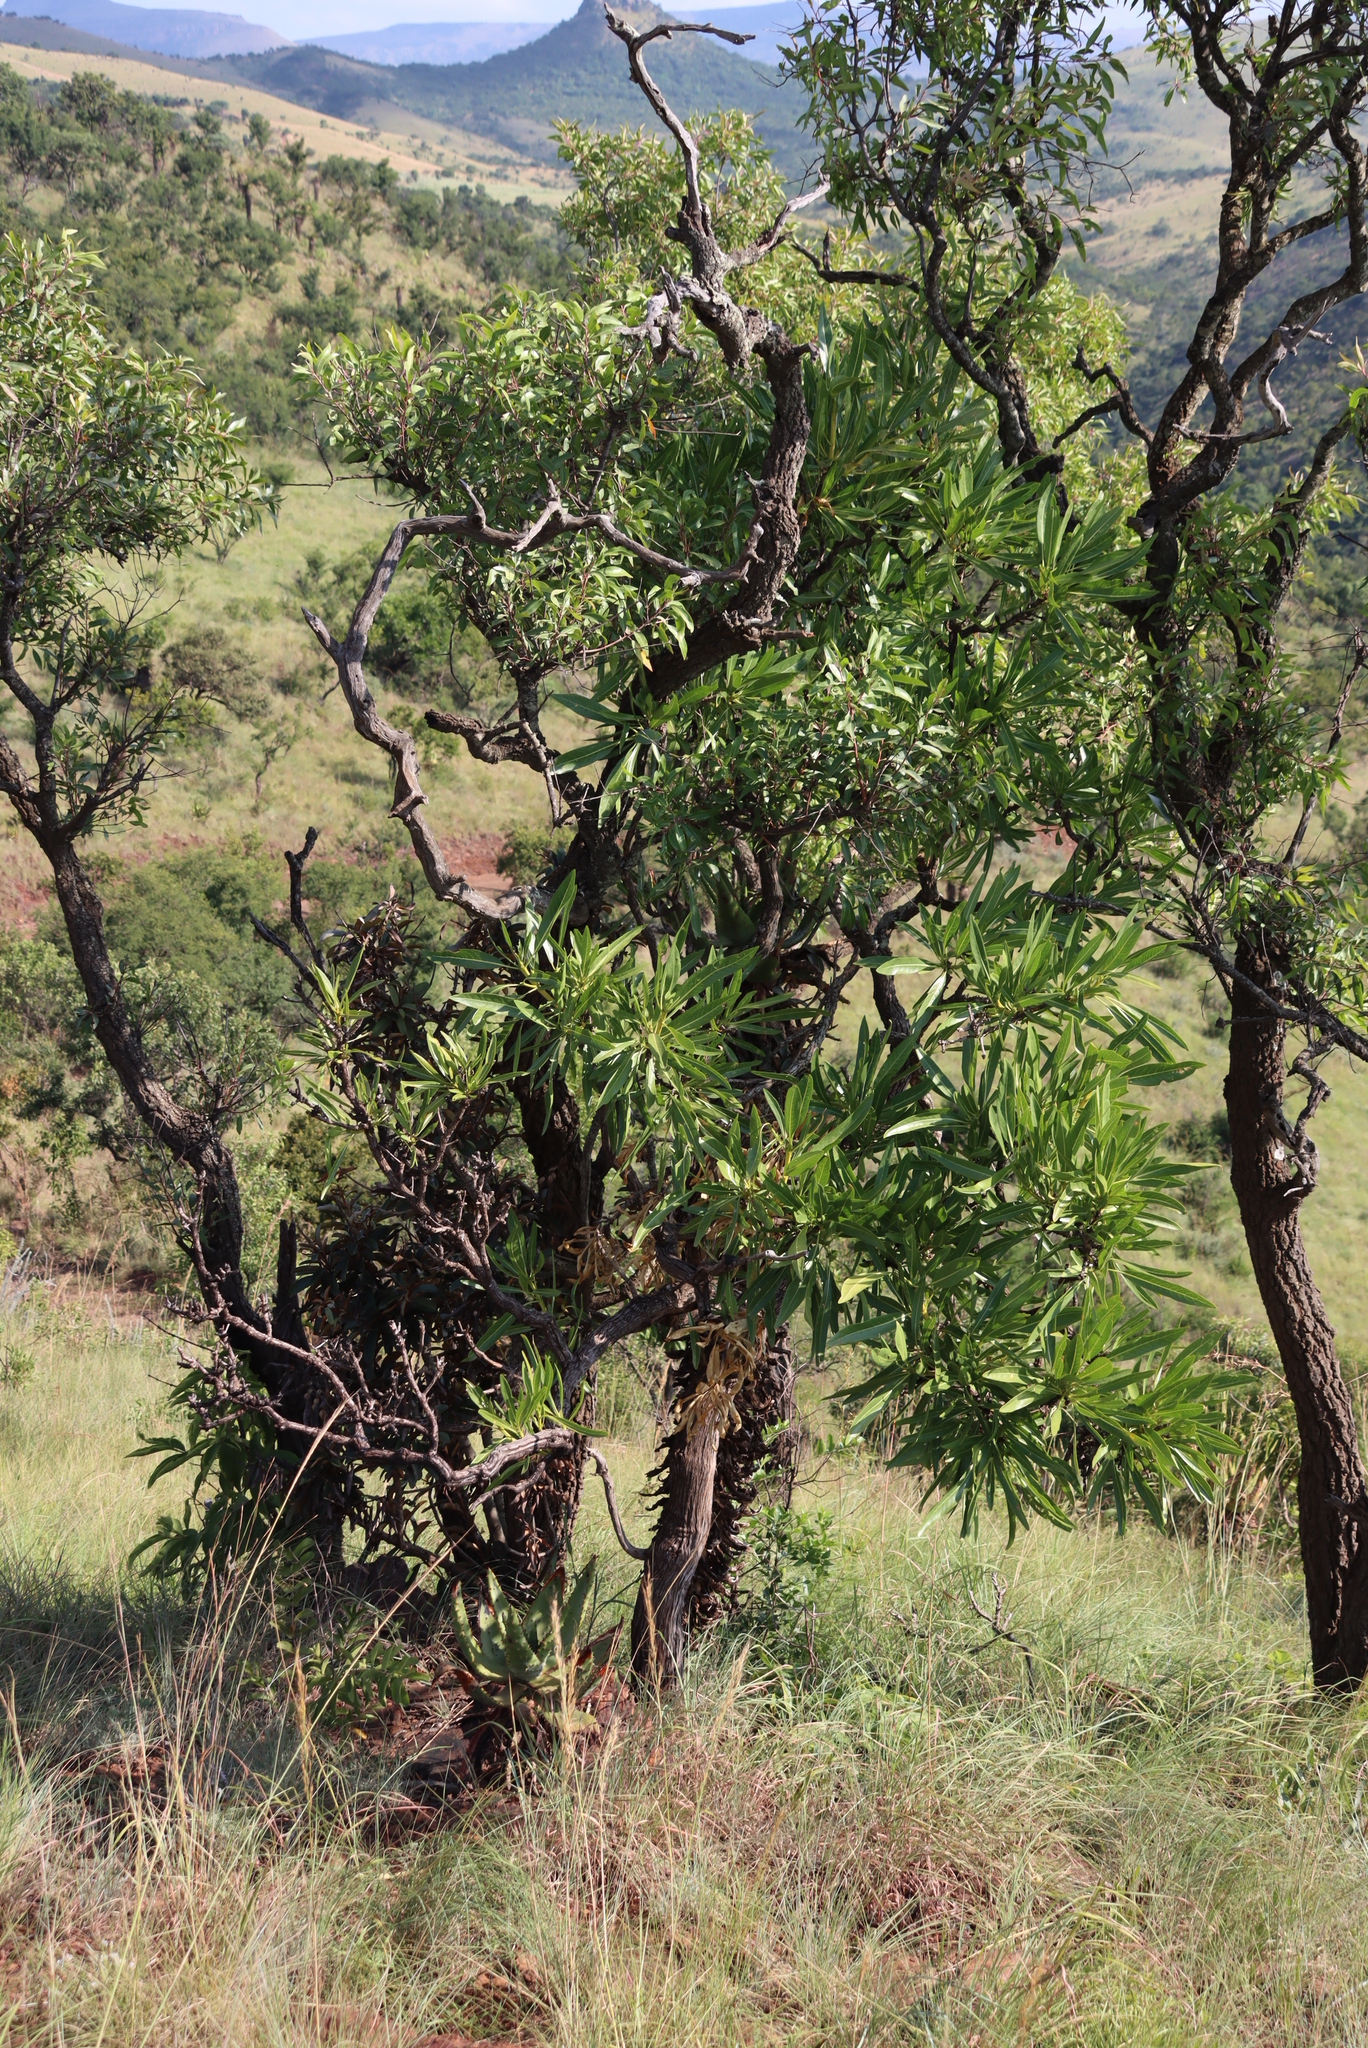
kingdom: Plantae
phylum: Tracheophyta
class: Magnoliopsida
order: Gentianales
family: Rubiaceae
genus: Pavetta
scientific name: Pavetta edentula
